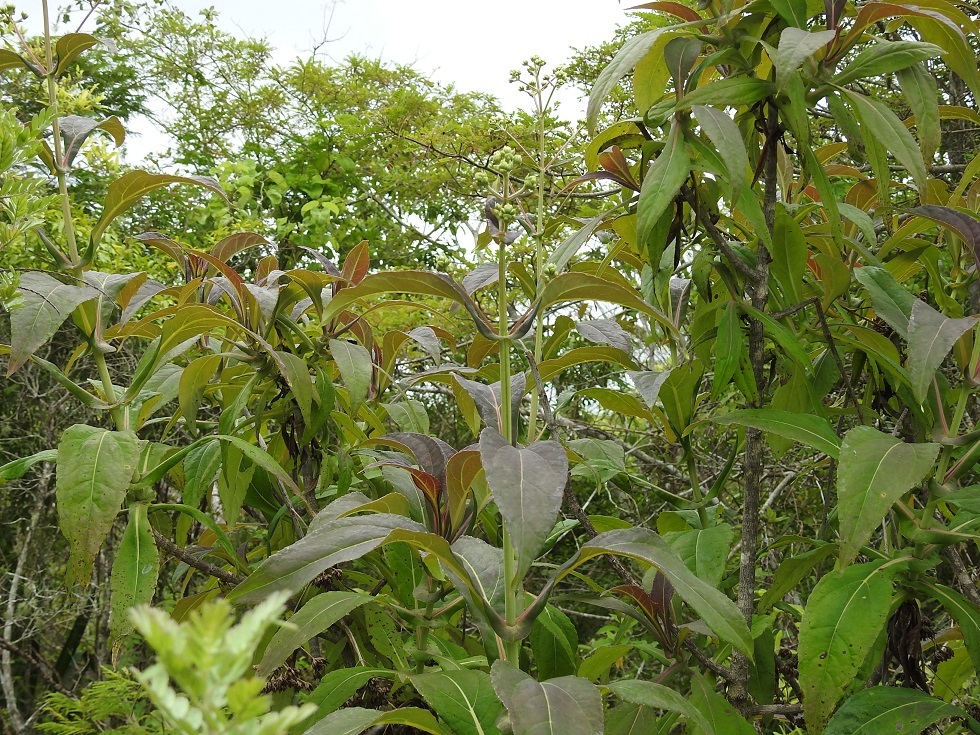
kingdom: Plantae
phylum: Tracheophyta
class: Magnoliopsida
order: Asterales
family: Asteraceae
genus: Desmanthodium
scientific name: Desmanthodium perfoliatum
